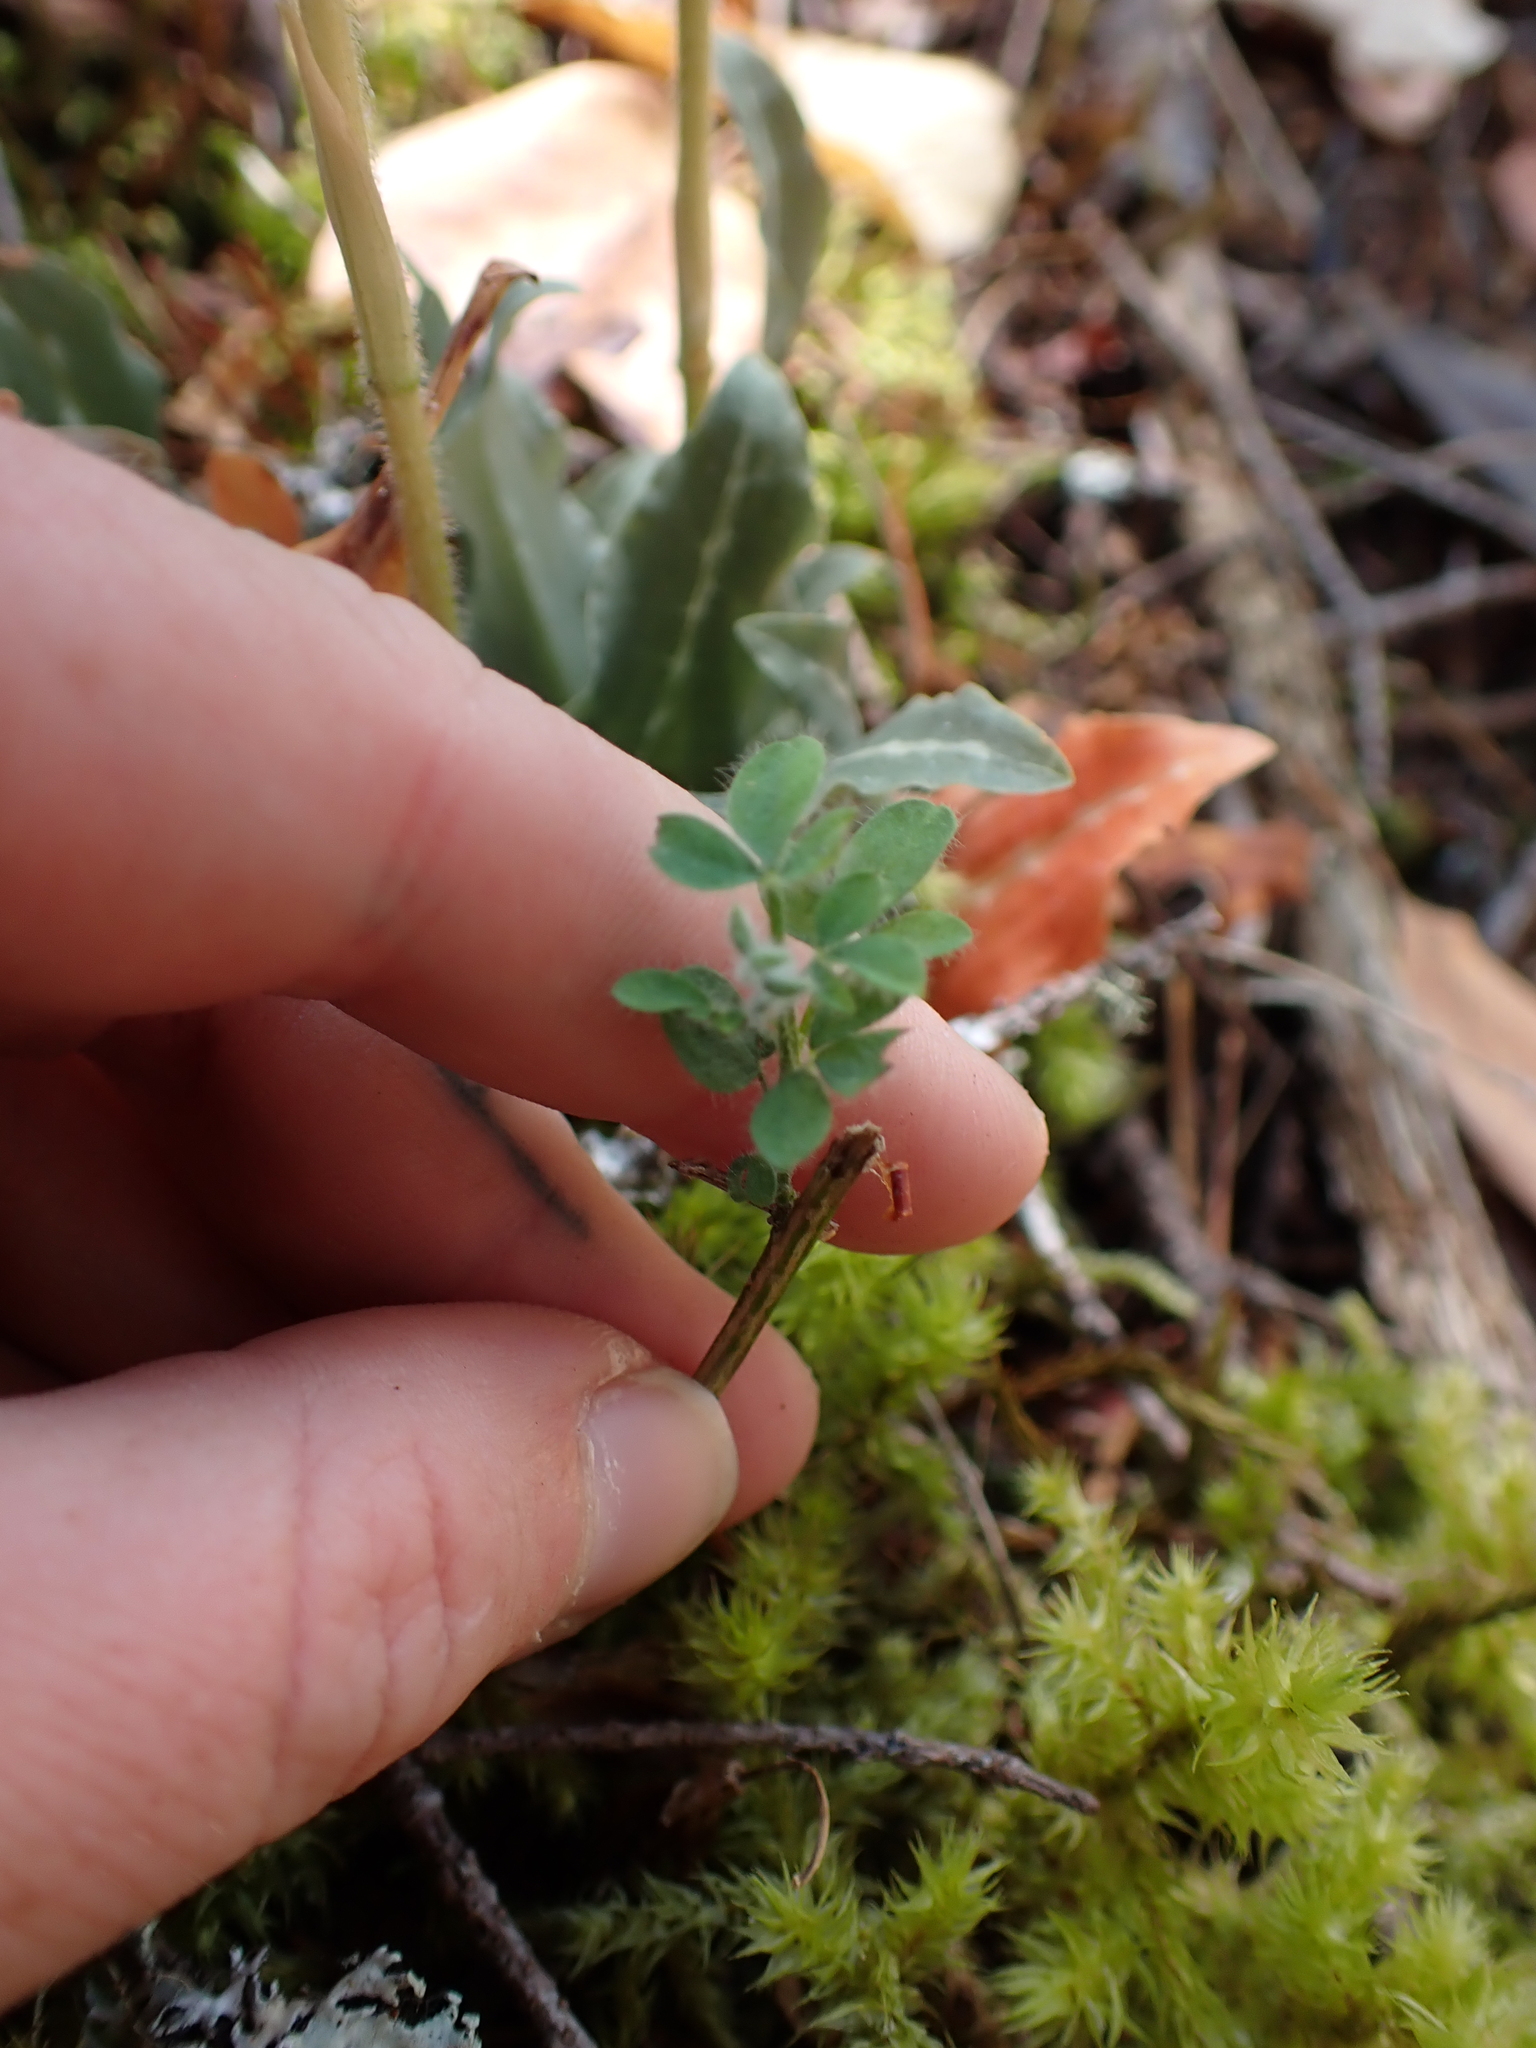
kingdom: Plantae
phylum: Tracheophyta
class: Magnoliopsida
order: Fabales
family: Fabaceae
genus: Cytisus
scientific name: Cytisus scoparius
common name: Scotch broom
